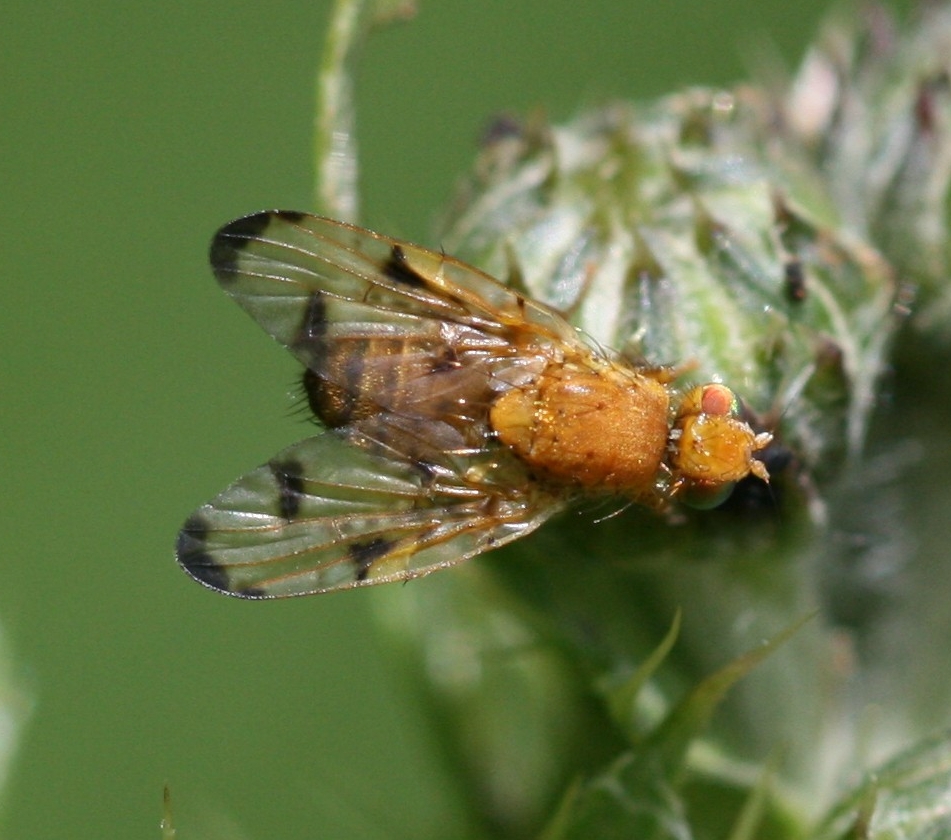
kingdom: Animalia
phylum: Arthropoda
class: Insecta
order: Diptera
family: Tephritidae
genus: Xyphosia
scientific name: Xyphosia miliaria
